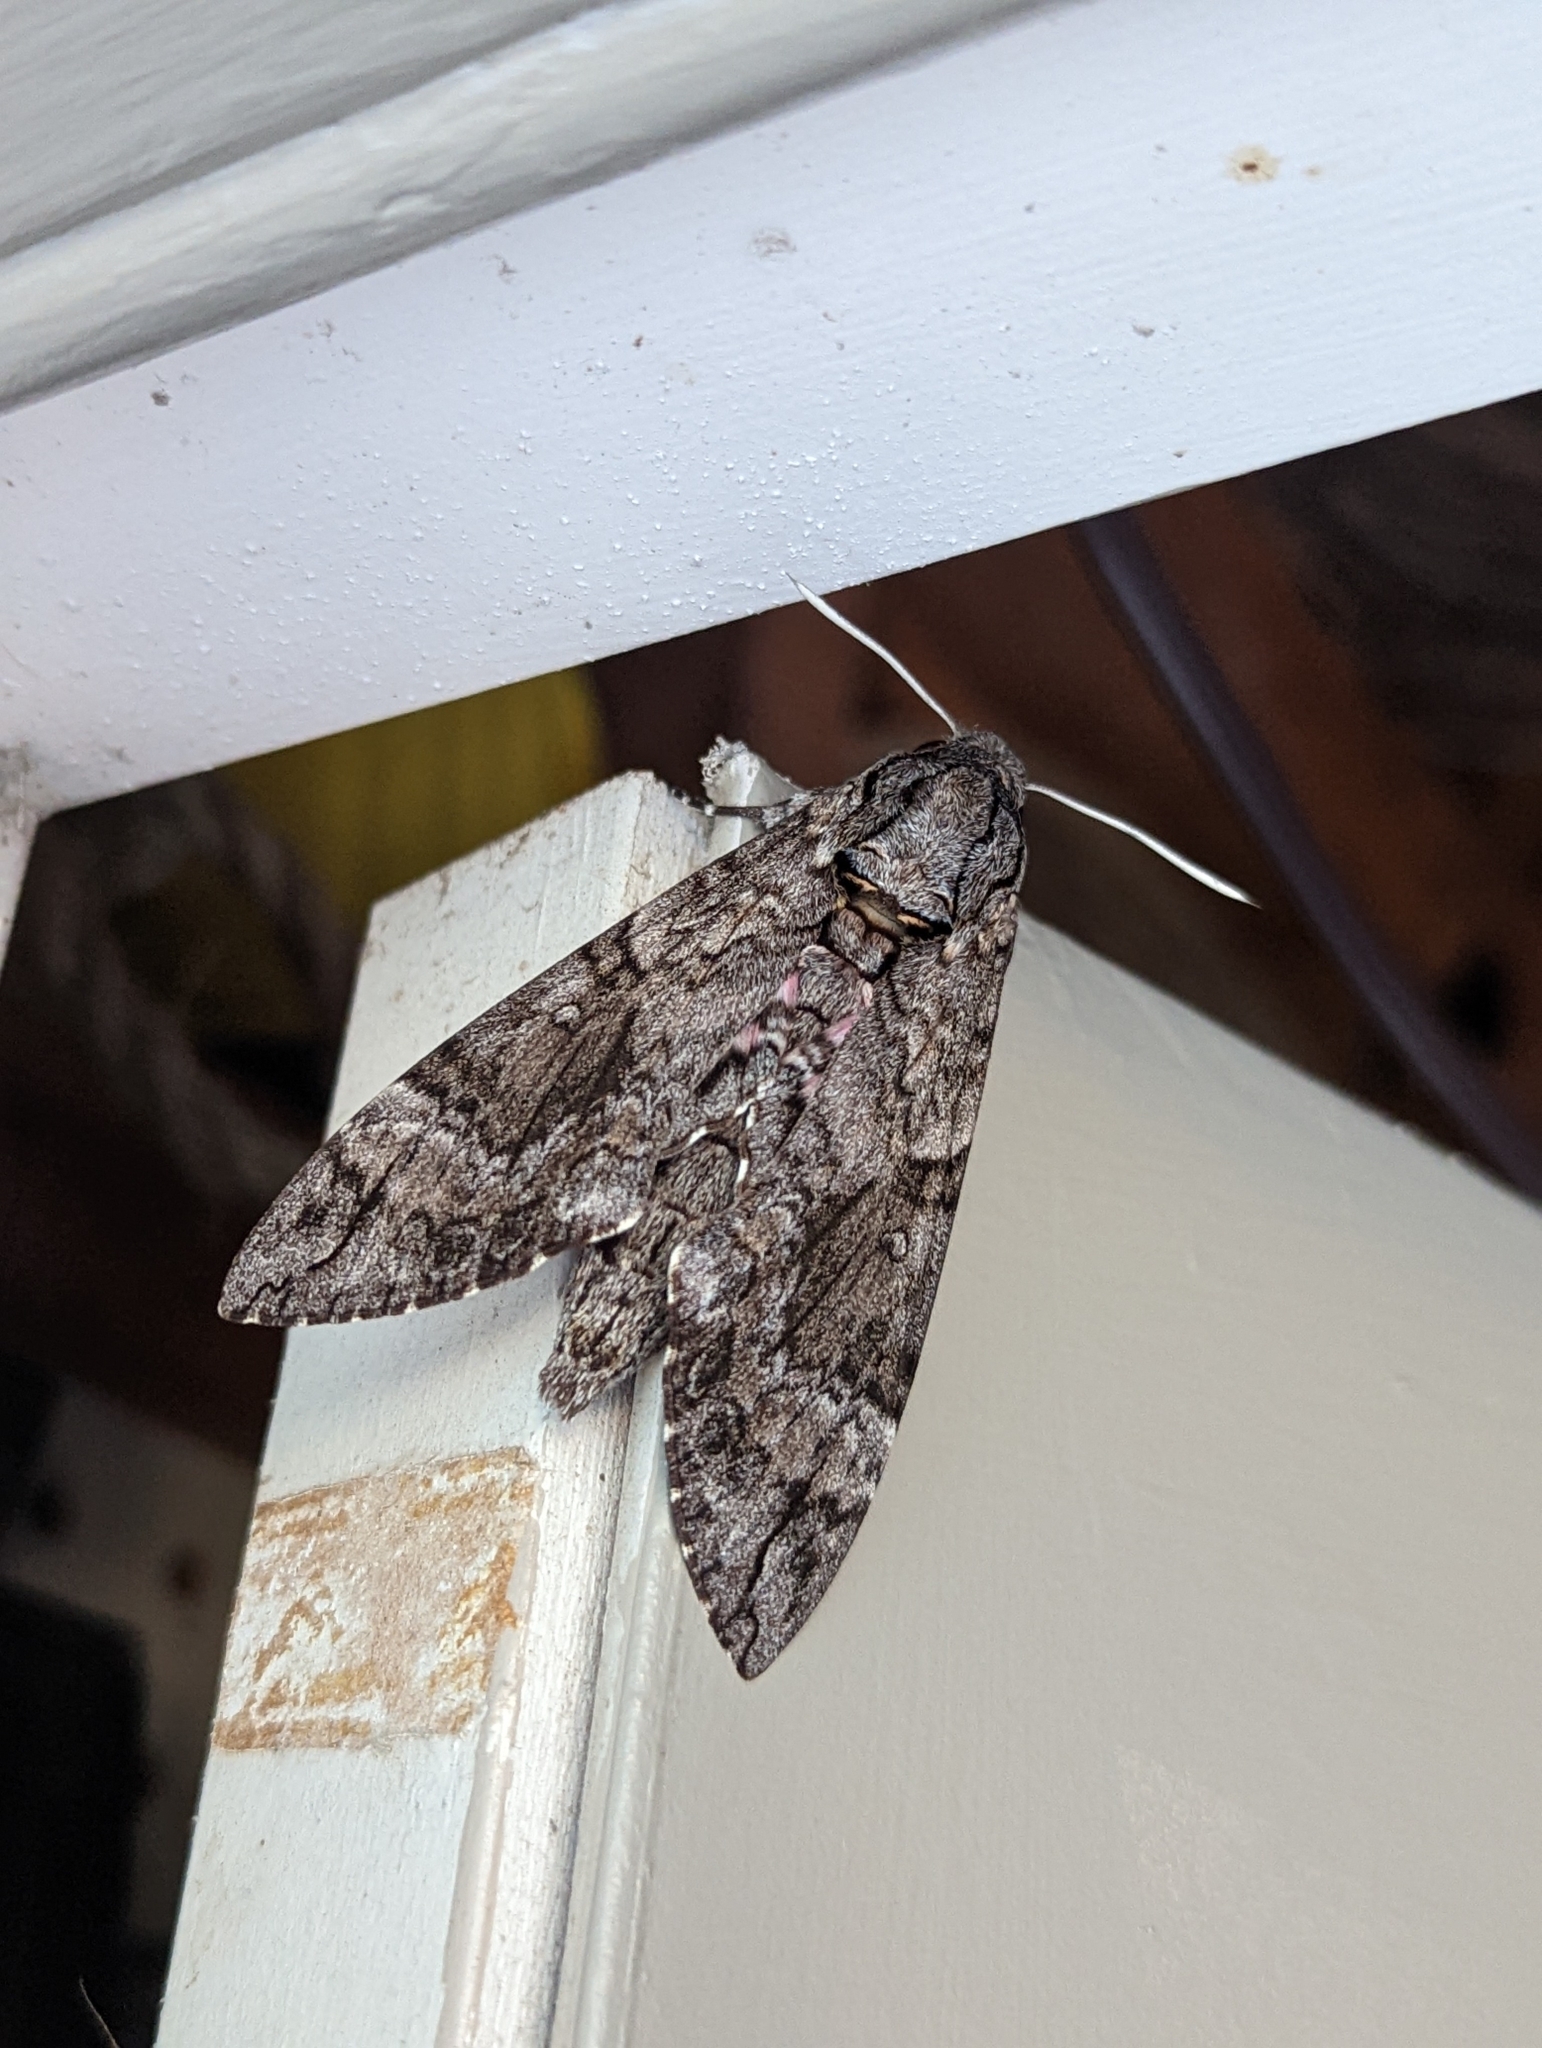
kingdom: Animalia
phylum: Arthropoda
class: Insecta
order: Lepidoptera
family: Sphingidae
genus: Agrius
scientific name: Agrius cingulata
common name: Pink-spotted hawkmoth
